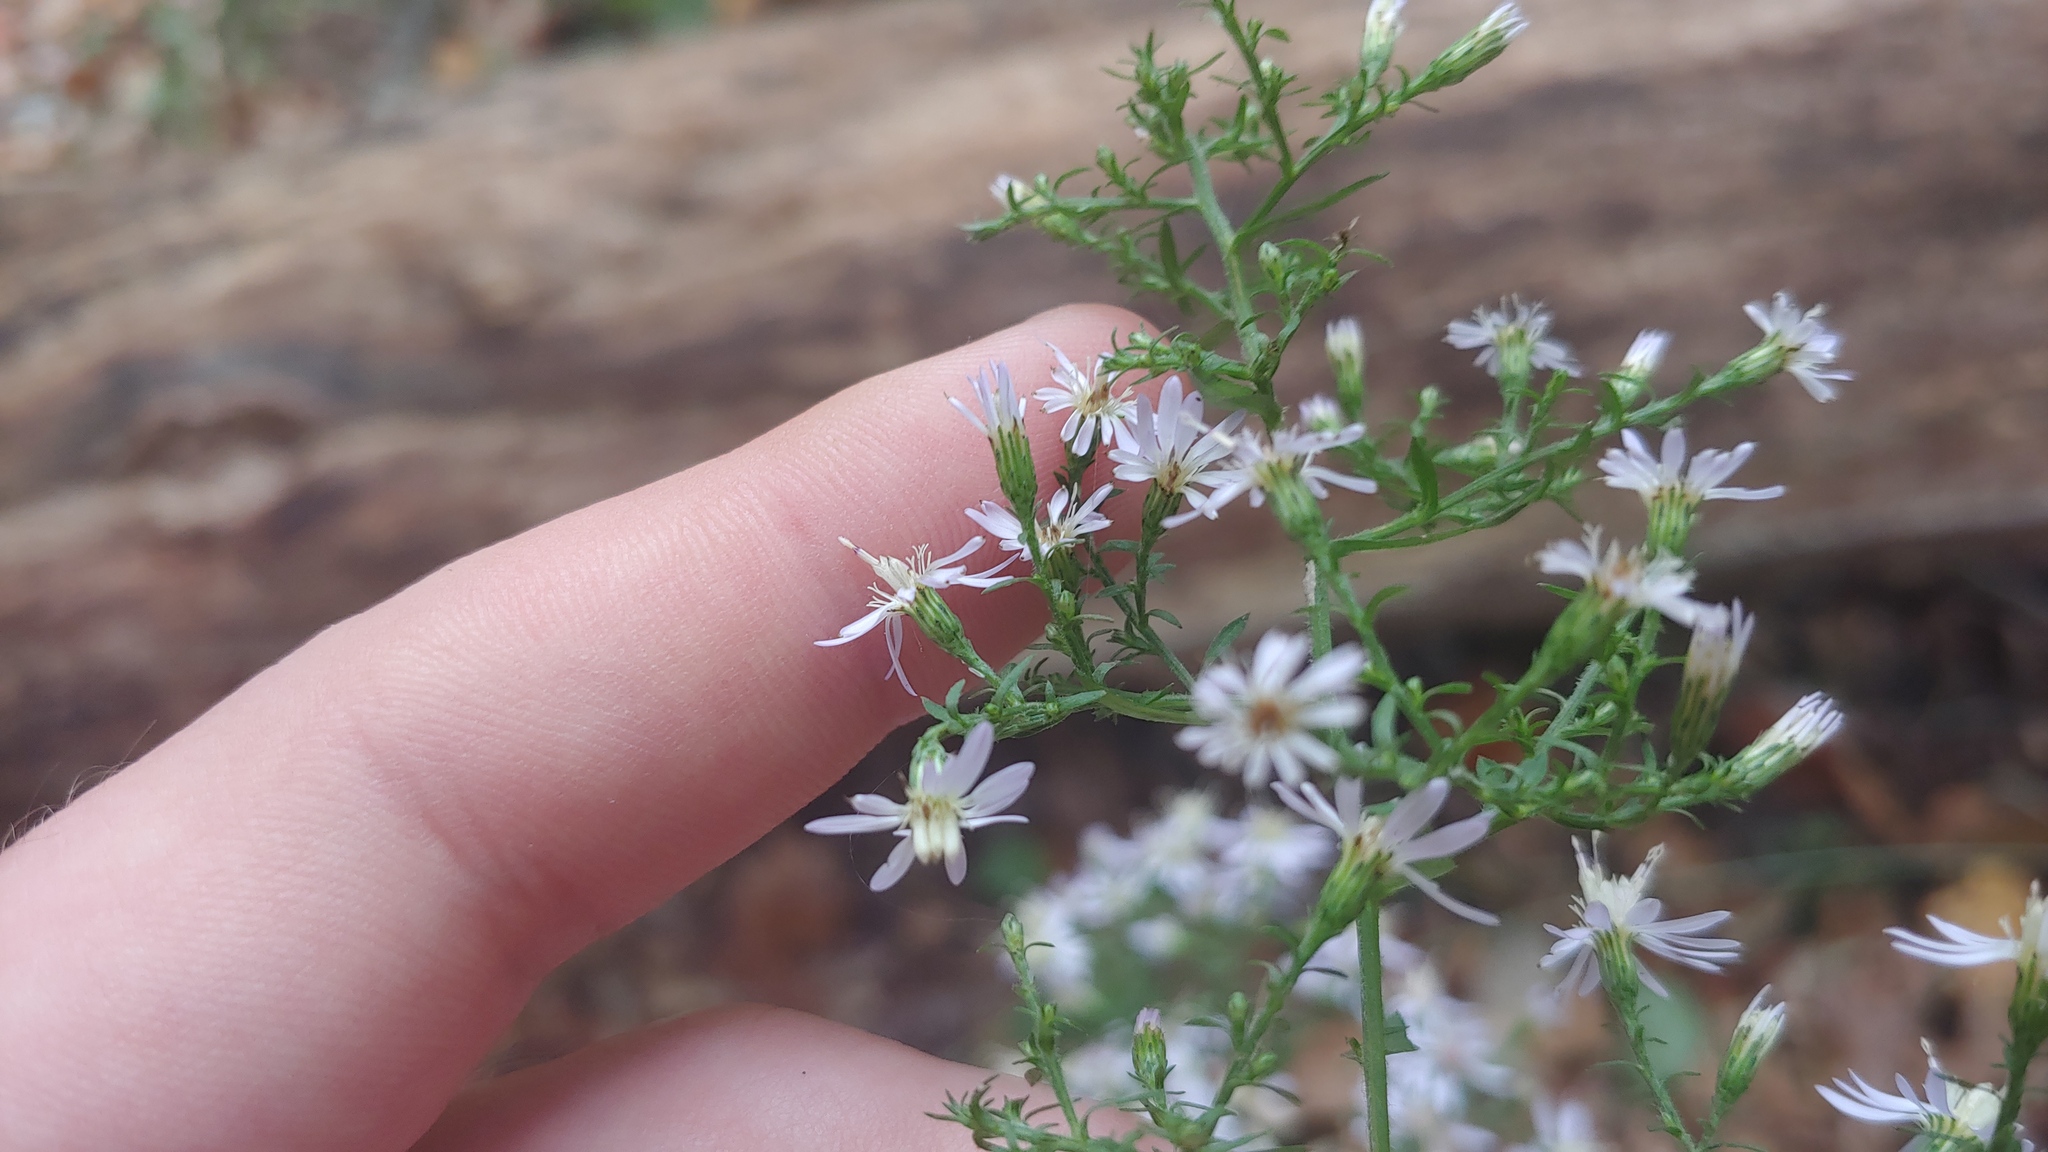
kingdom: Plantae
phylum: Tracheophyta
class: Magnoliopsida
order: Asterales
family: Asteraceae
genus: Symphyotrichum
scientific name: Symphyotrichum cordifolium
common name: Beeweed
